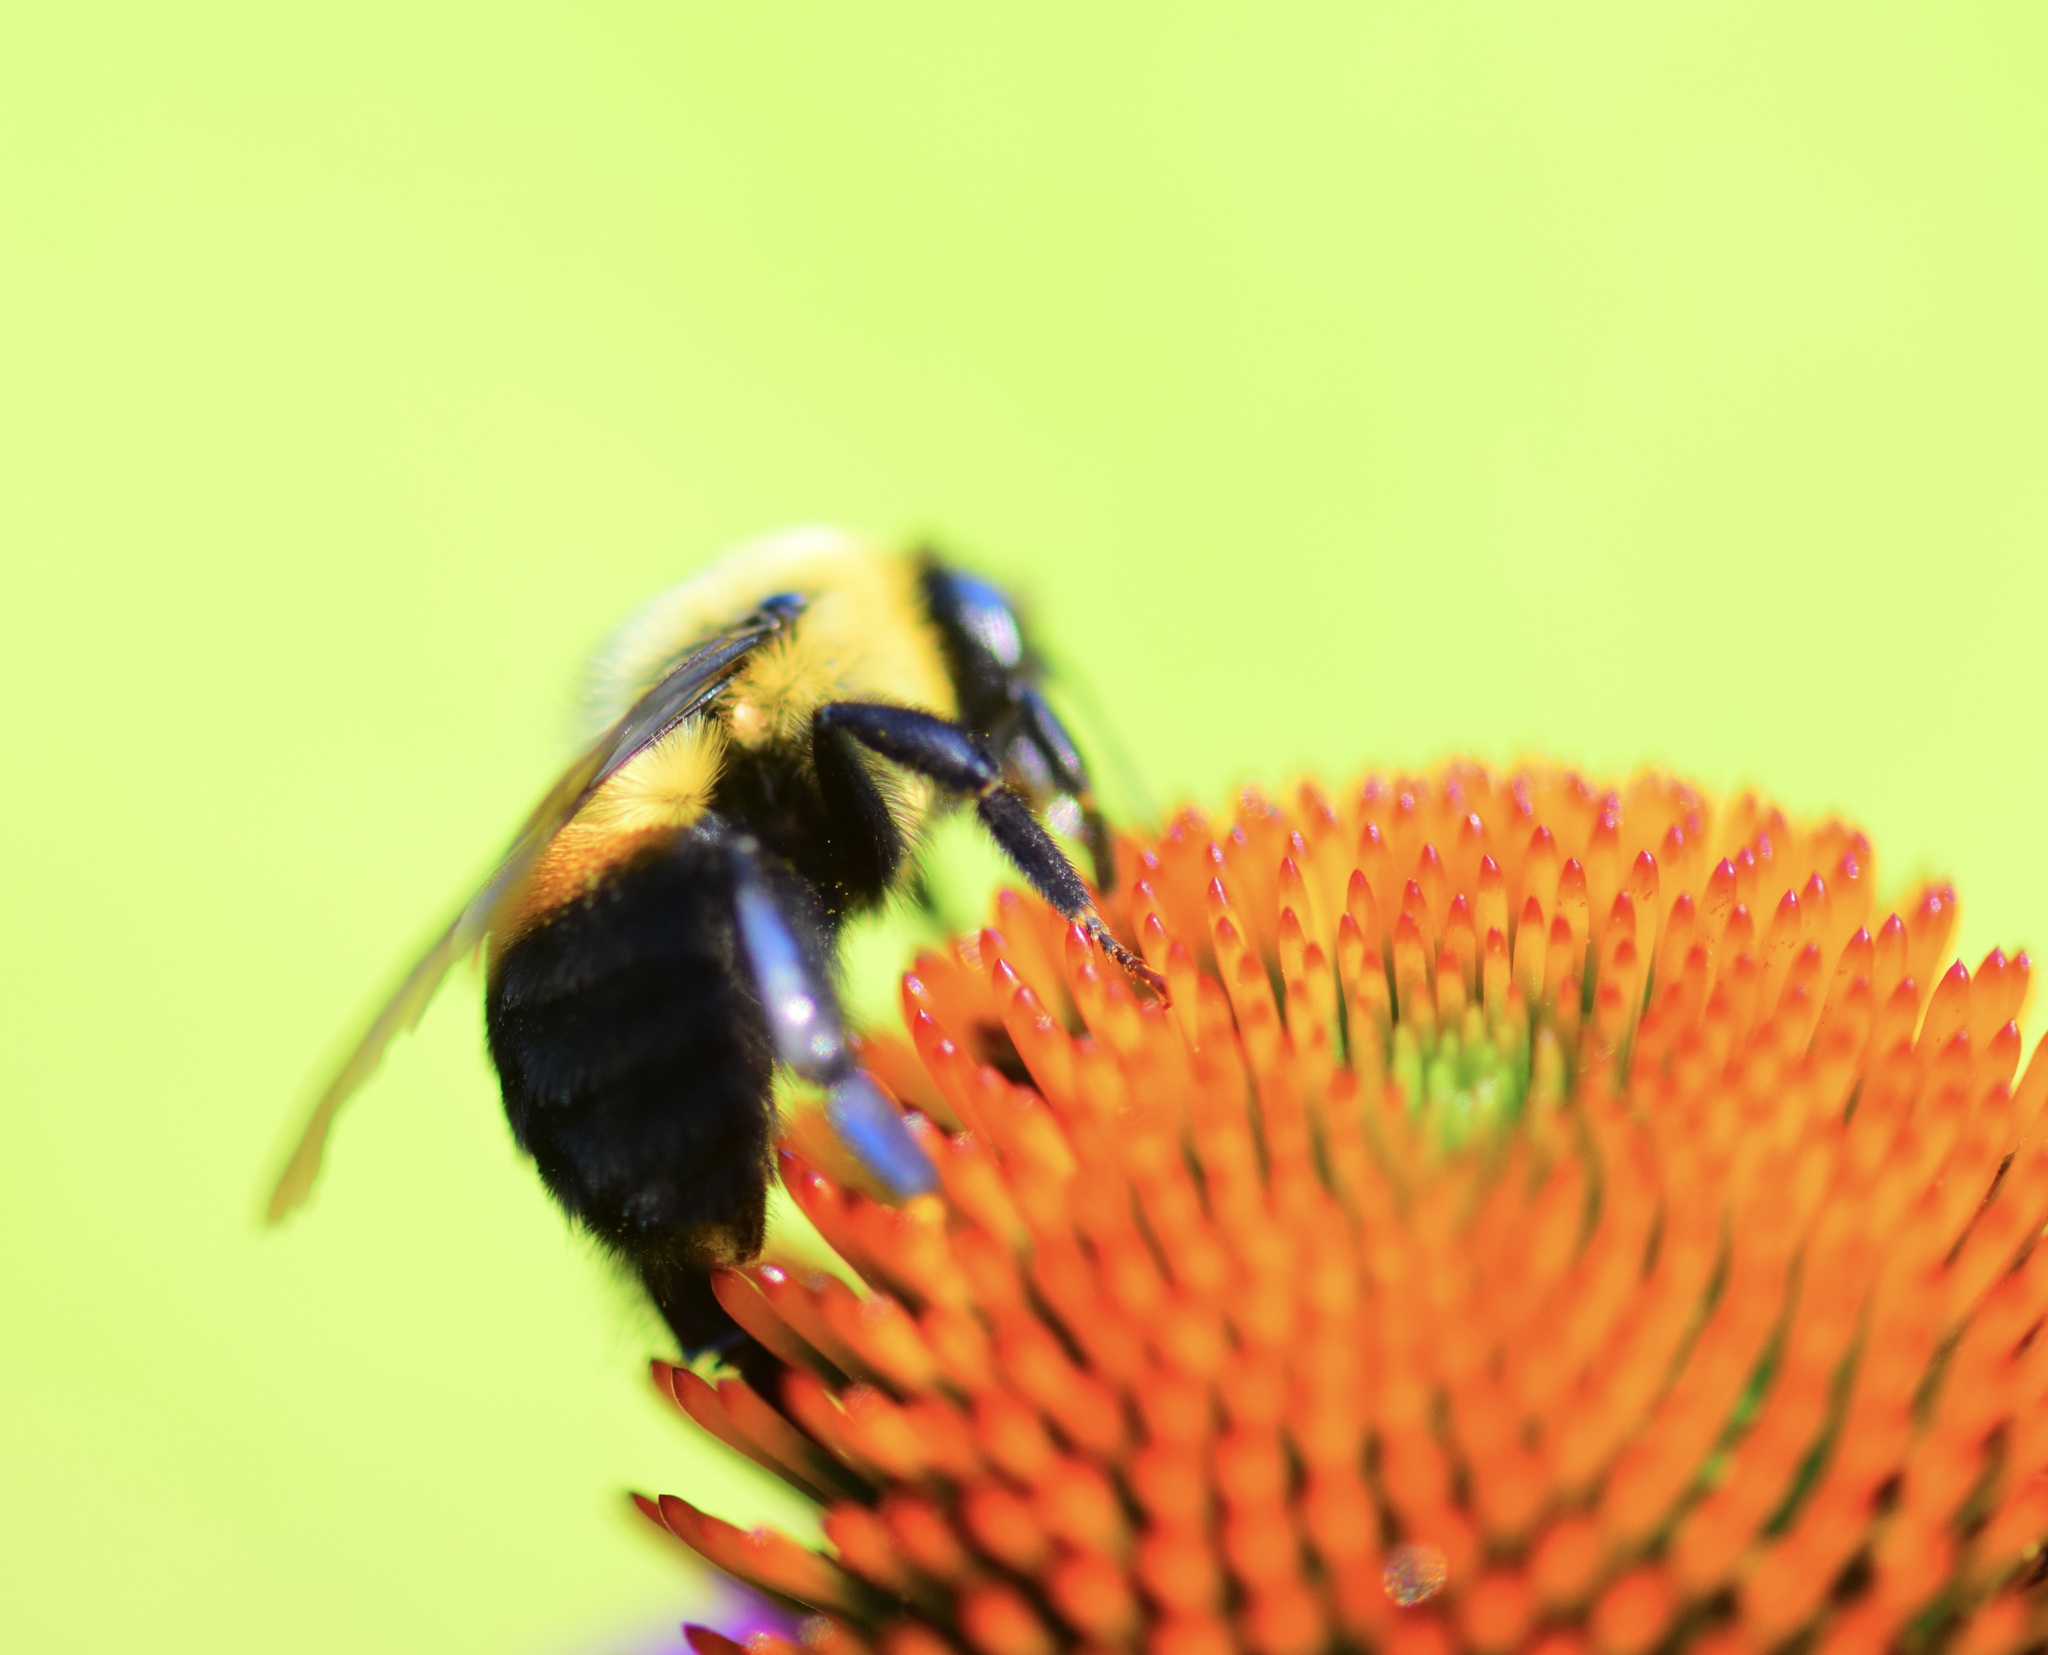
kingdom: Animalia
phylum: Arthropoda
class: Insecta
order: Hymenoptera
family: Apidae
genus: Bombus
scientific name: Bombus griseocollis
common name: Brown-belted bumble bee
